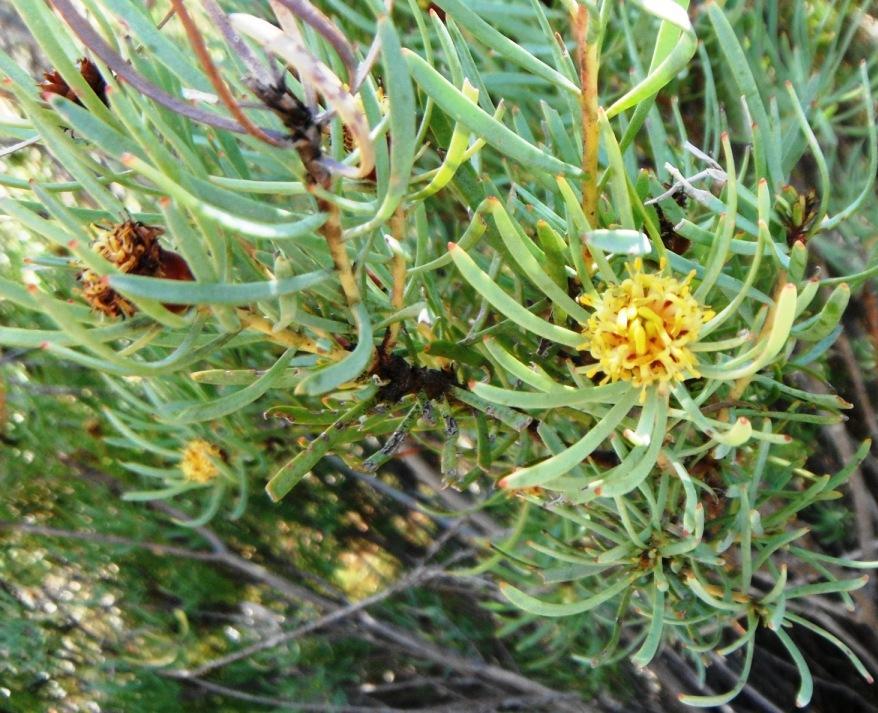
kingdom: Plantae
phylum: Tracheophyta
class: Magnoliopsida
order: Proteales
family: Proteaceae
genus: Leucadendron
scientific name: Leucadendron meyerianum
